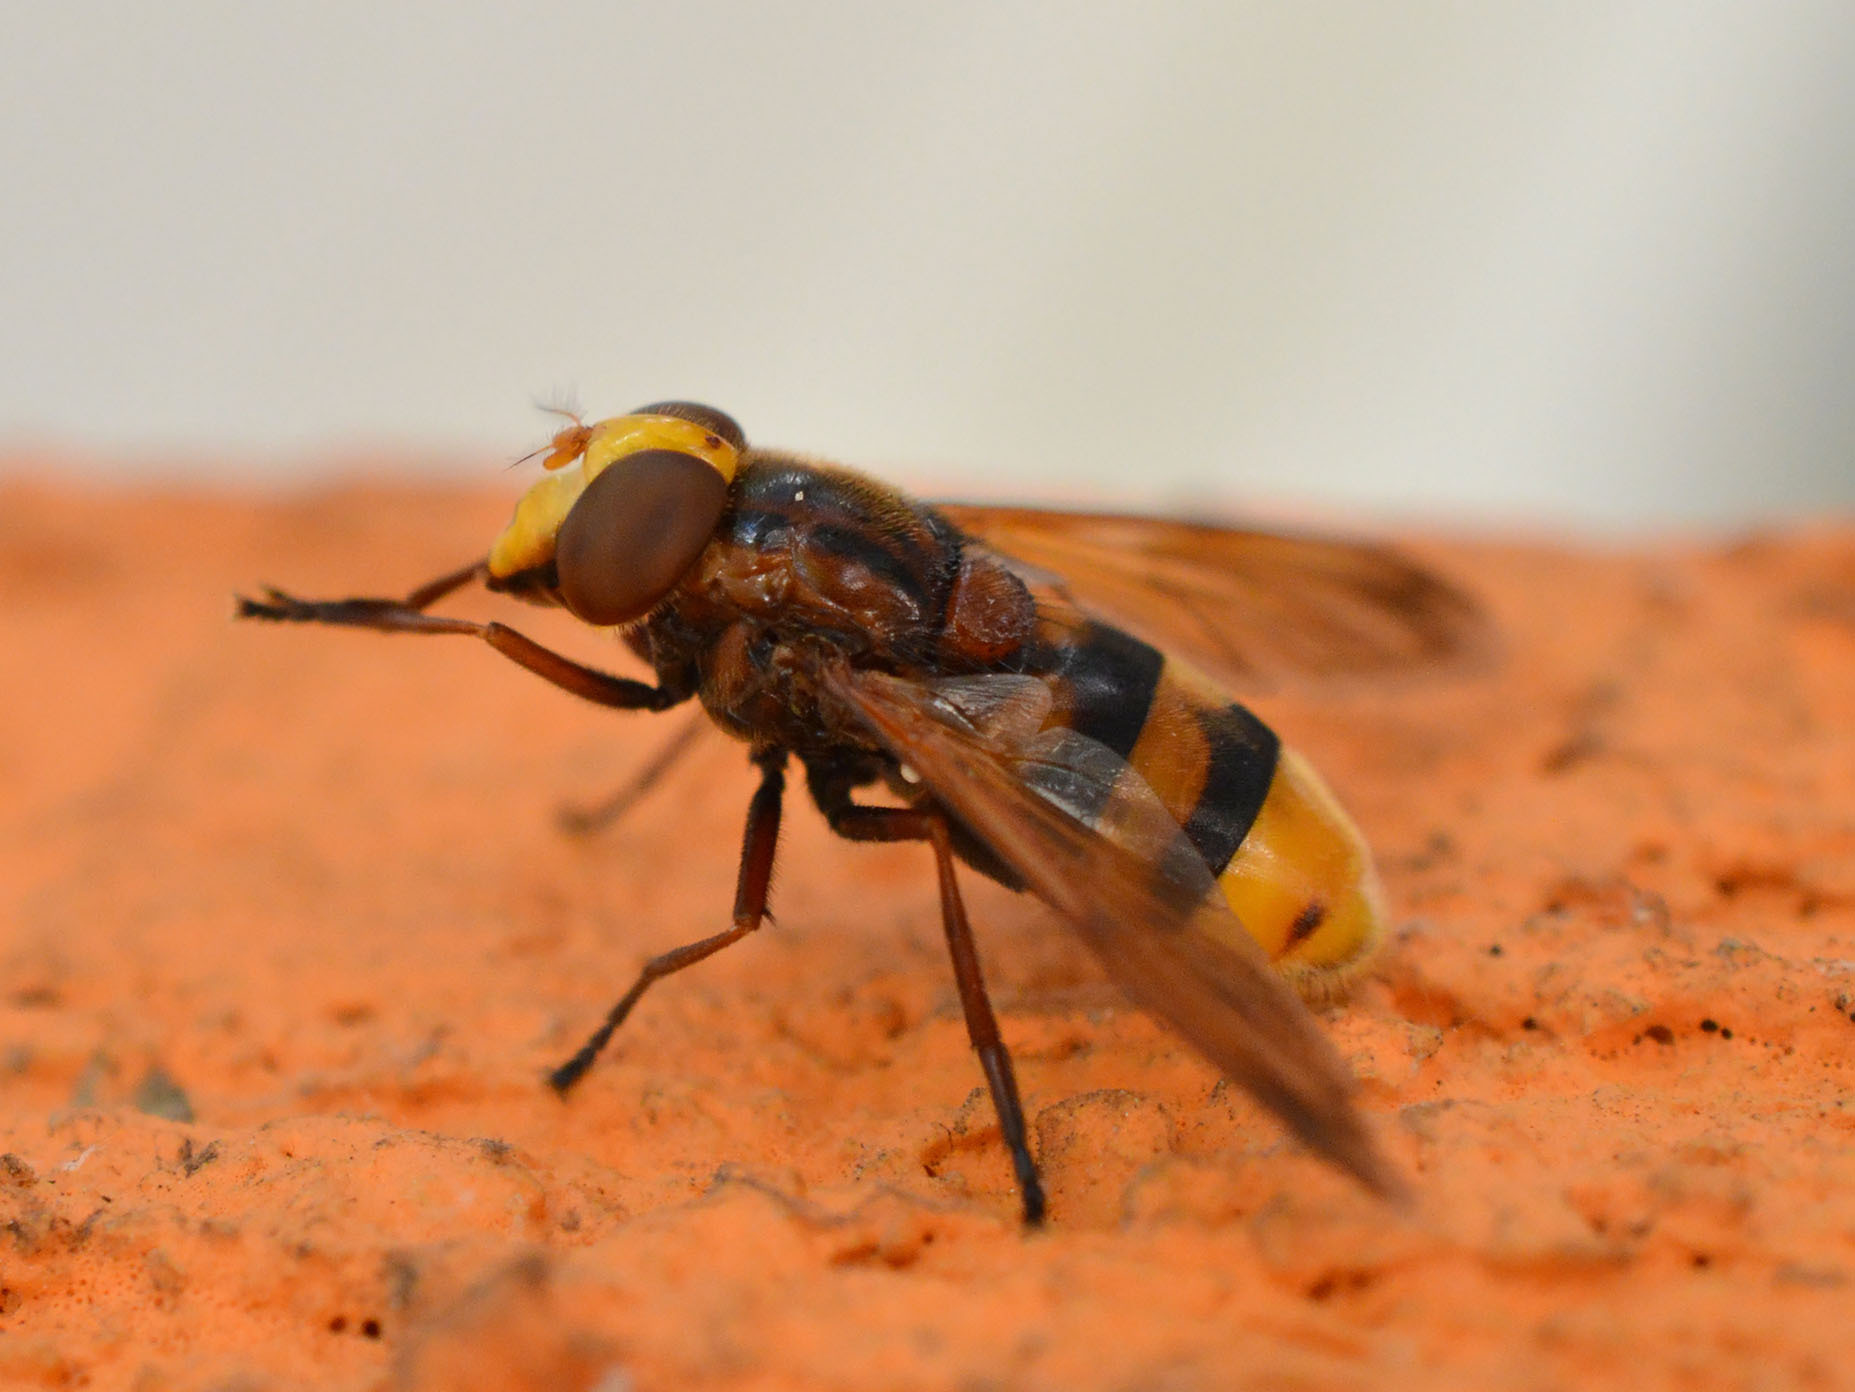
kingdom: Animalia
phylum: Arthropoda
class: Insecta
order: Diptera
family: Syrphidae
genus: Volucella
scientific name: Volucella zonaria
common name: Hornet hoverfly
